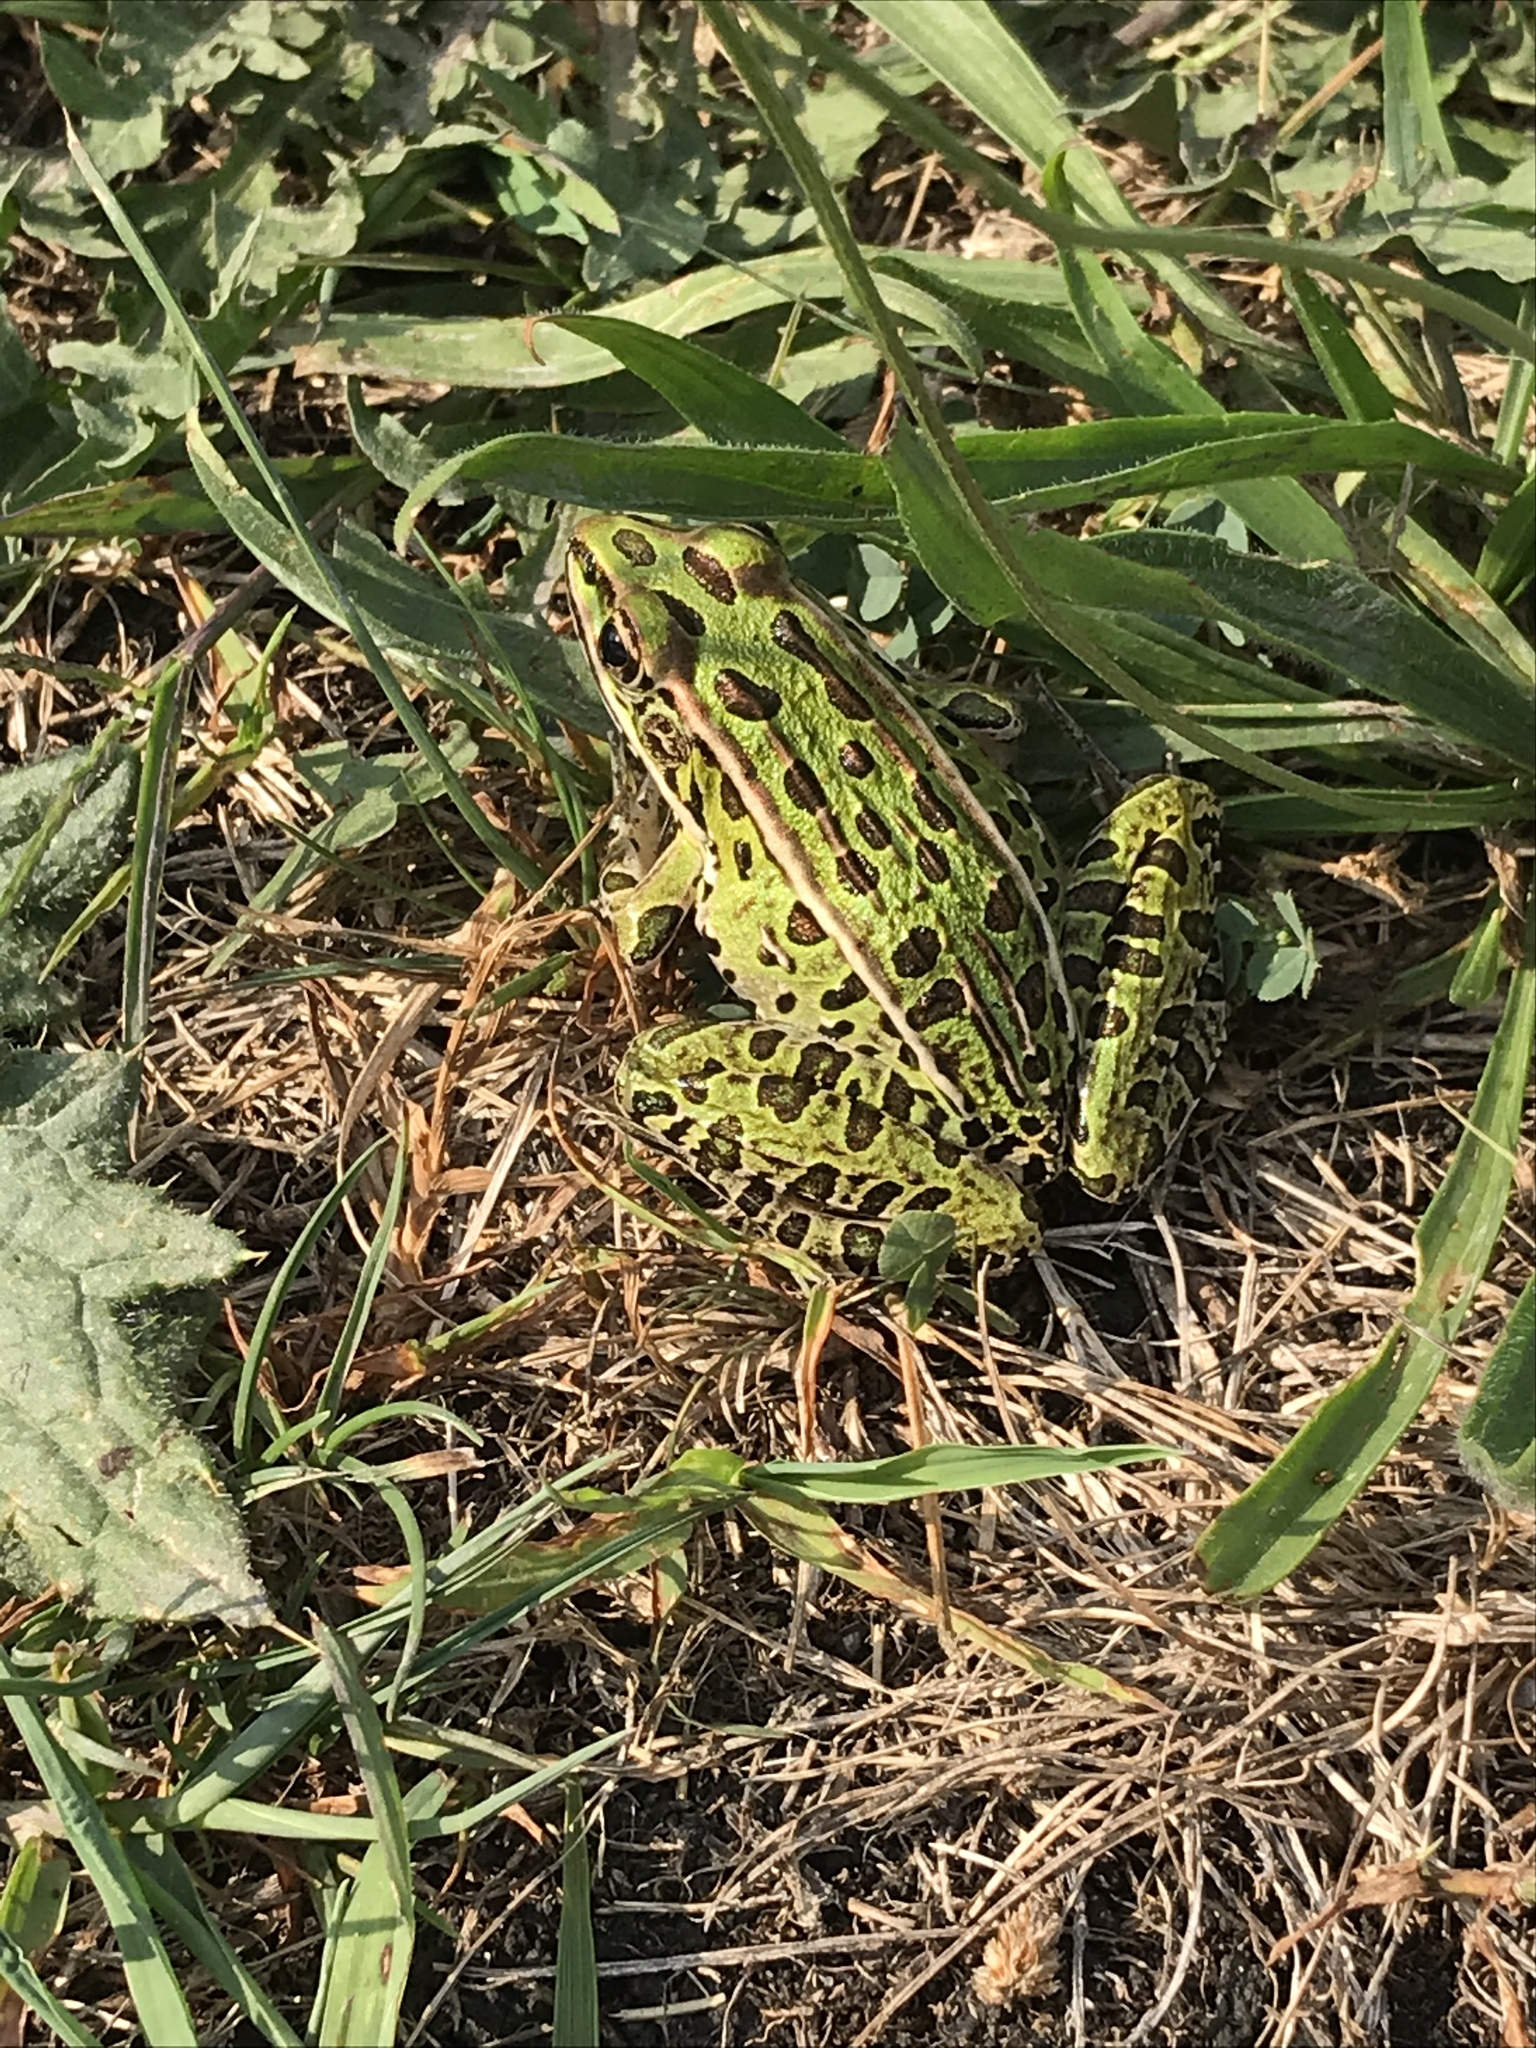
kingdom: Animalia
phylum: Chordata
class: Amphibia
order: Anura
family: Ranidae
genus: Lithobates
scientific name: Lithobates pipiens
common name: Northern leopard frog
